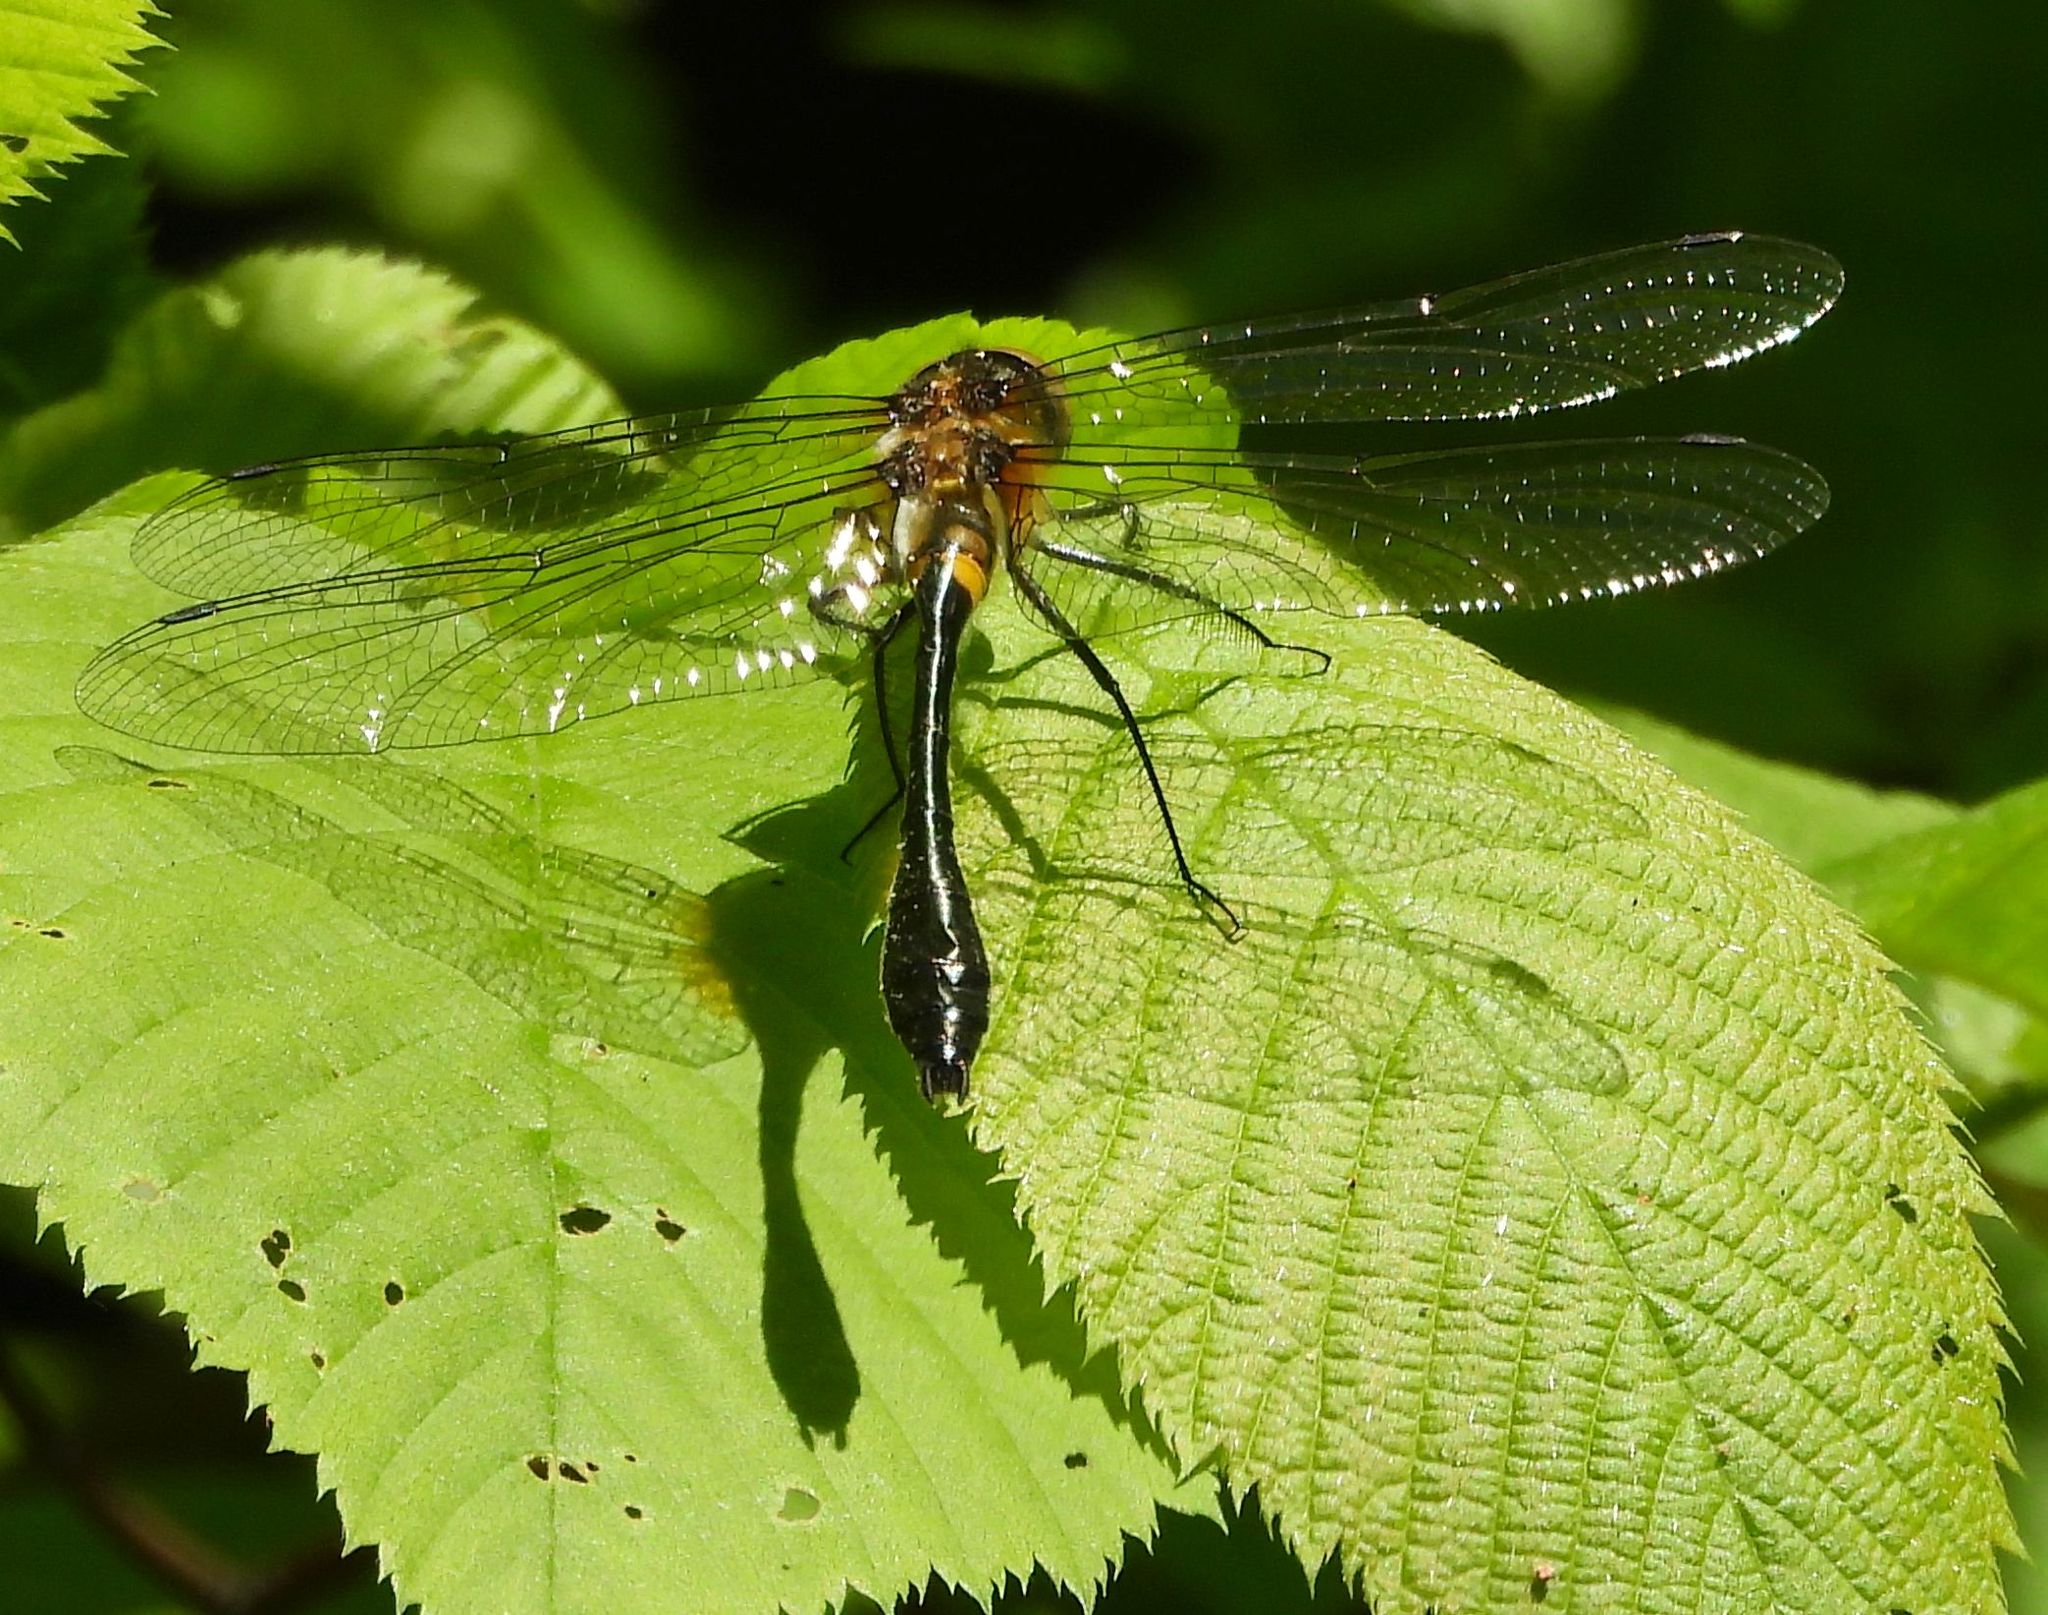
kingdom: Animalia
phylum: Arthropoda
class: Insecta
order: Odonata
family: Corduliidae
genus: Dorocordulia
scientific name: Dorocordulia libera
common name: Racket-tailed emerald
